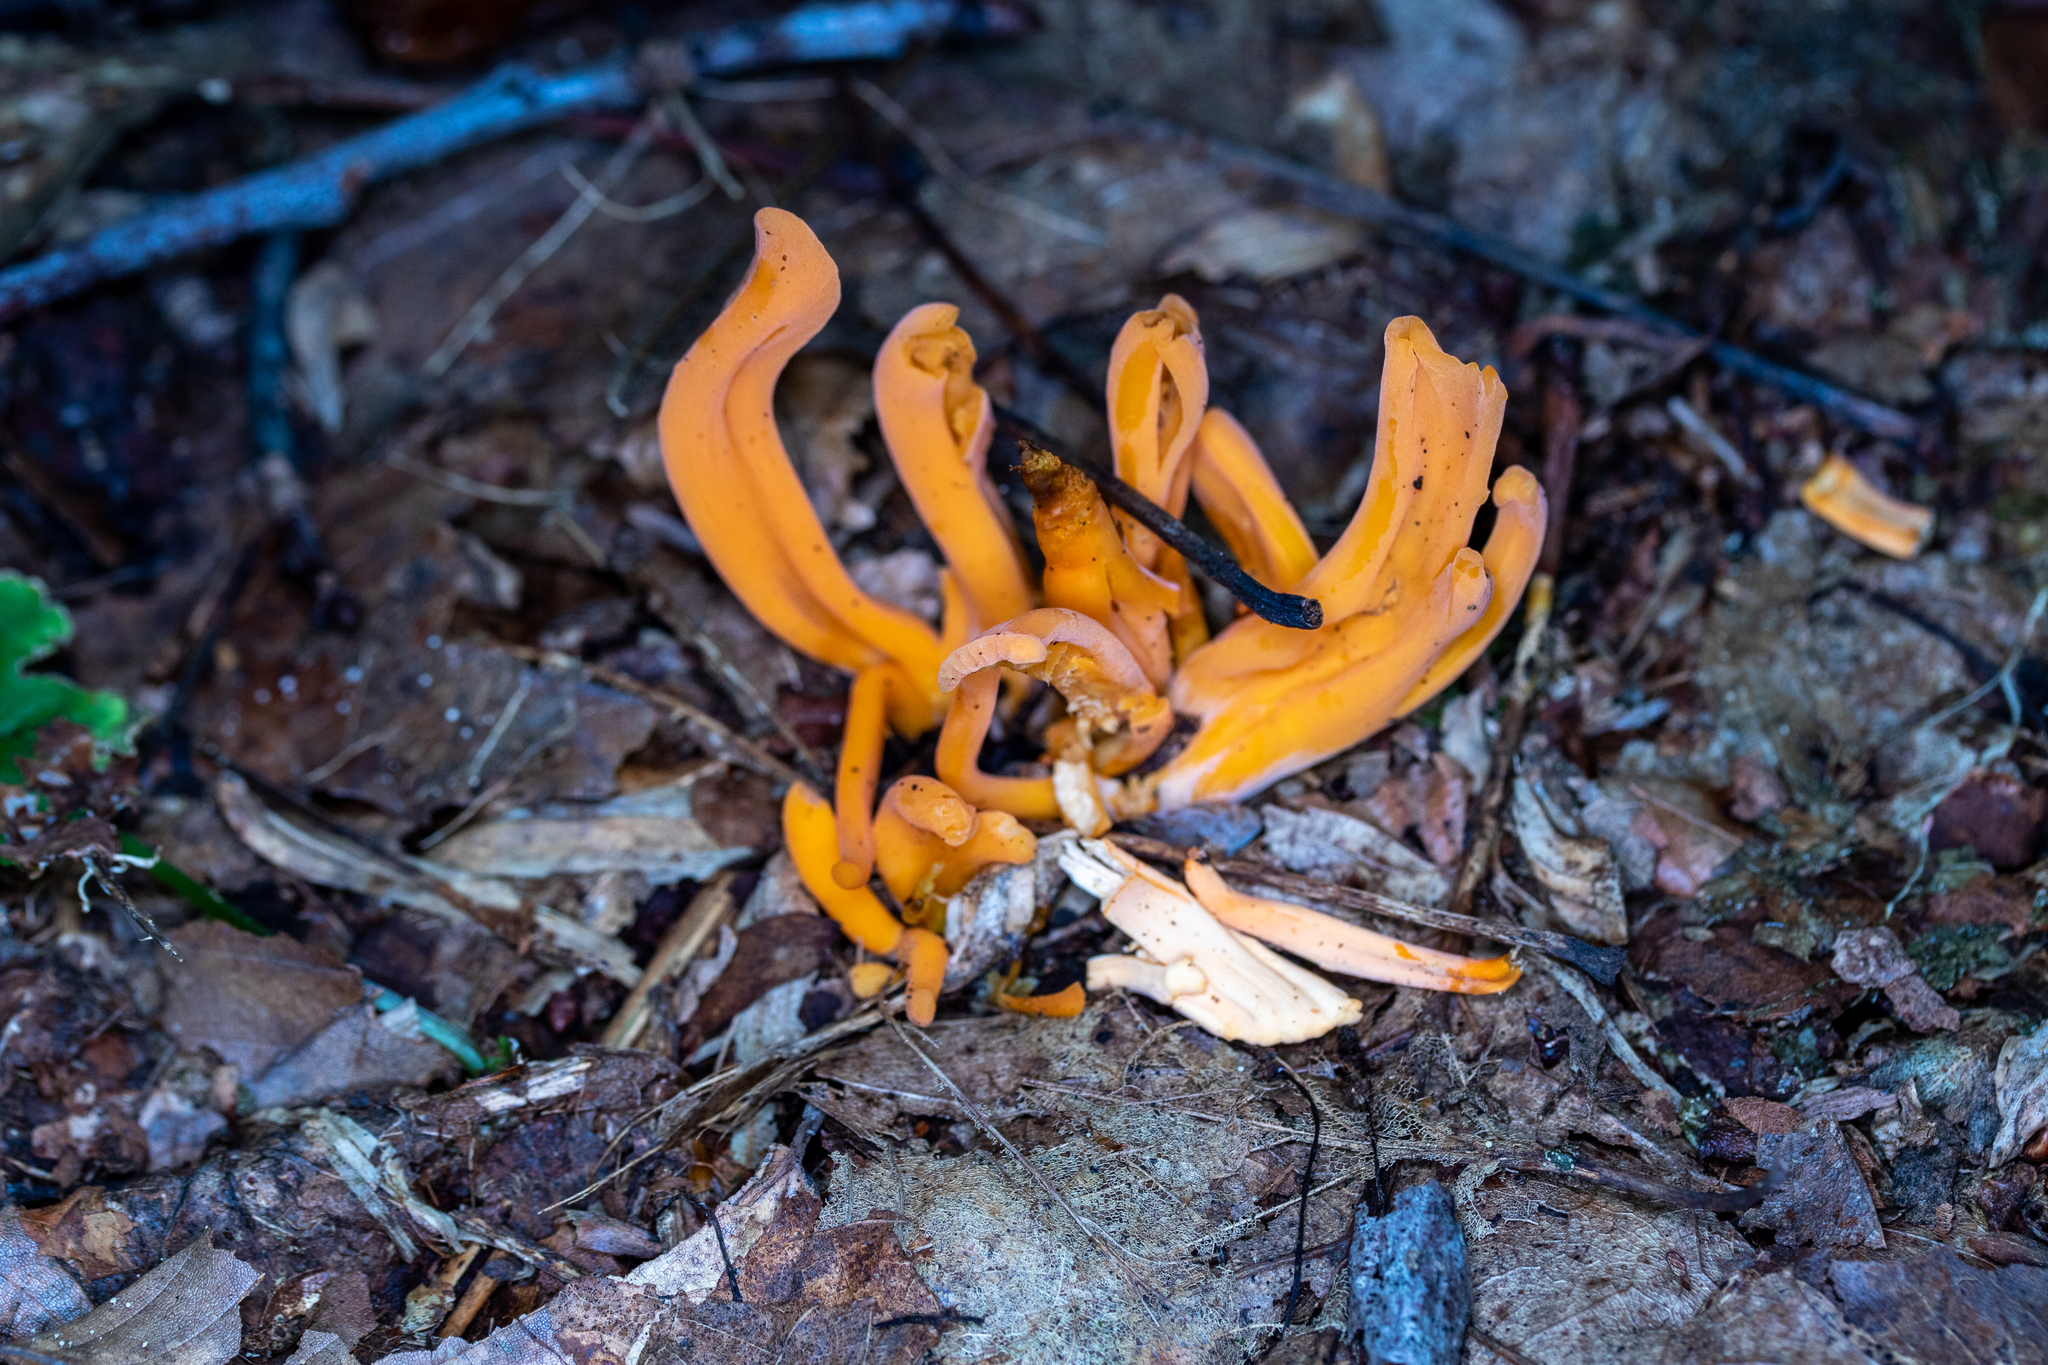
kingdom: Fungi
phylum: Basidiomycota
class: Agaricomycetes
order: Agaricales
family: Clavariaceae
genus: Clavulinopsis
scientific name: Clavulinopsis aurantiocinnabarina
